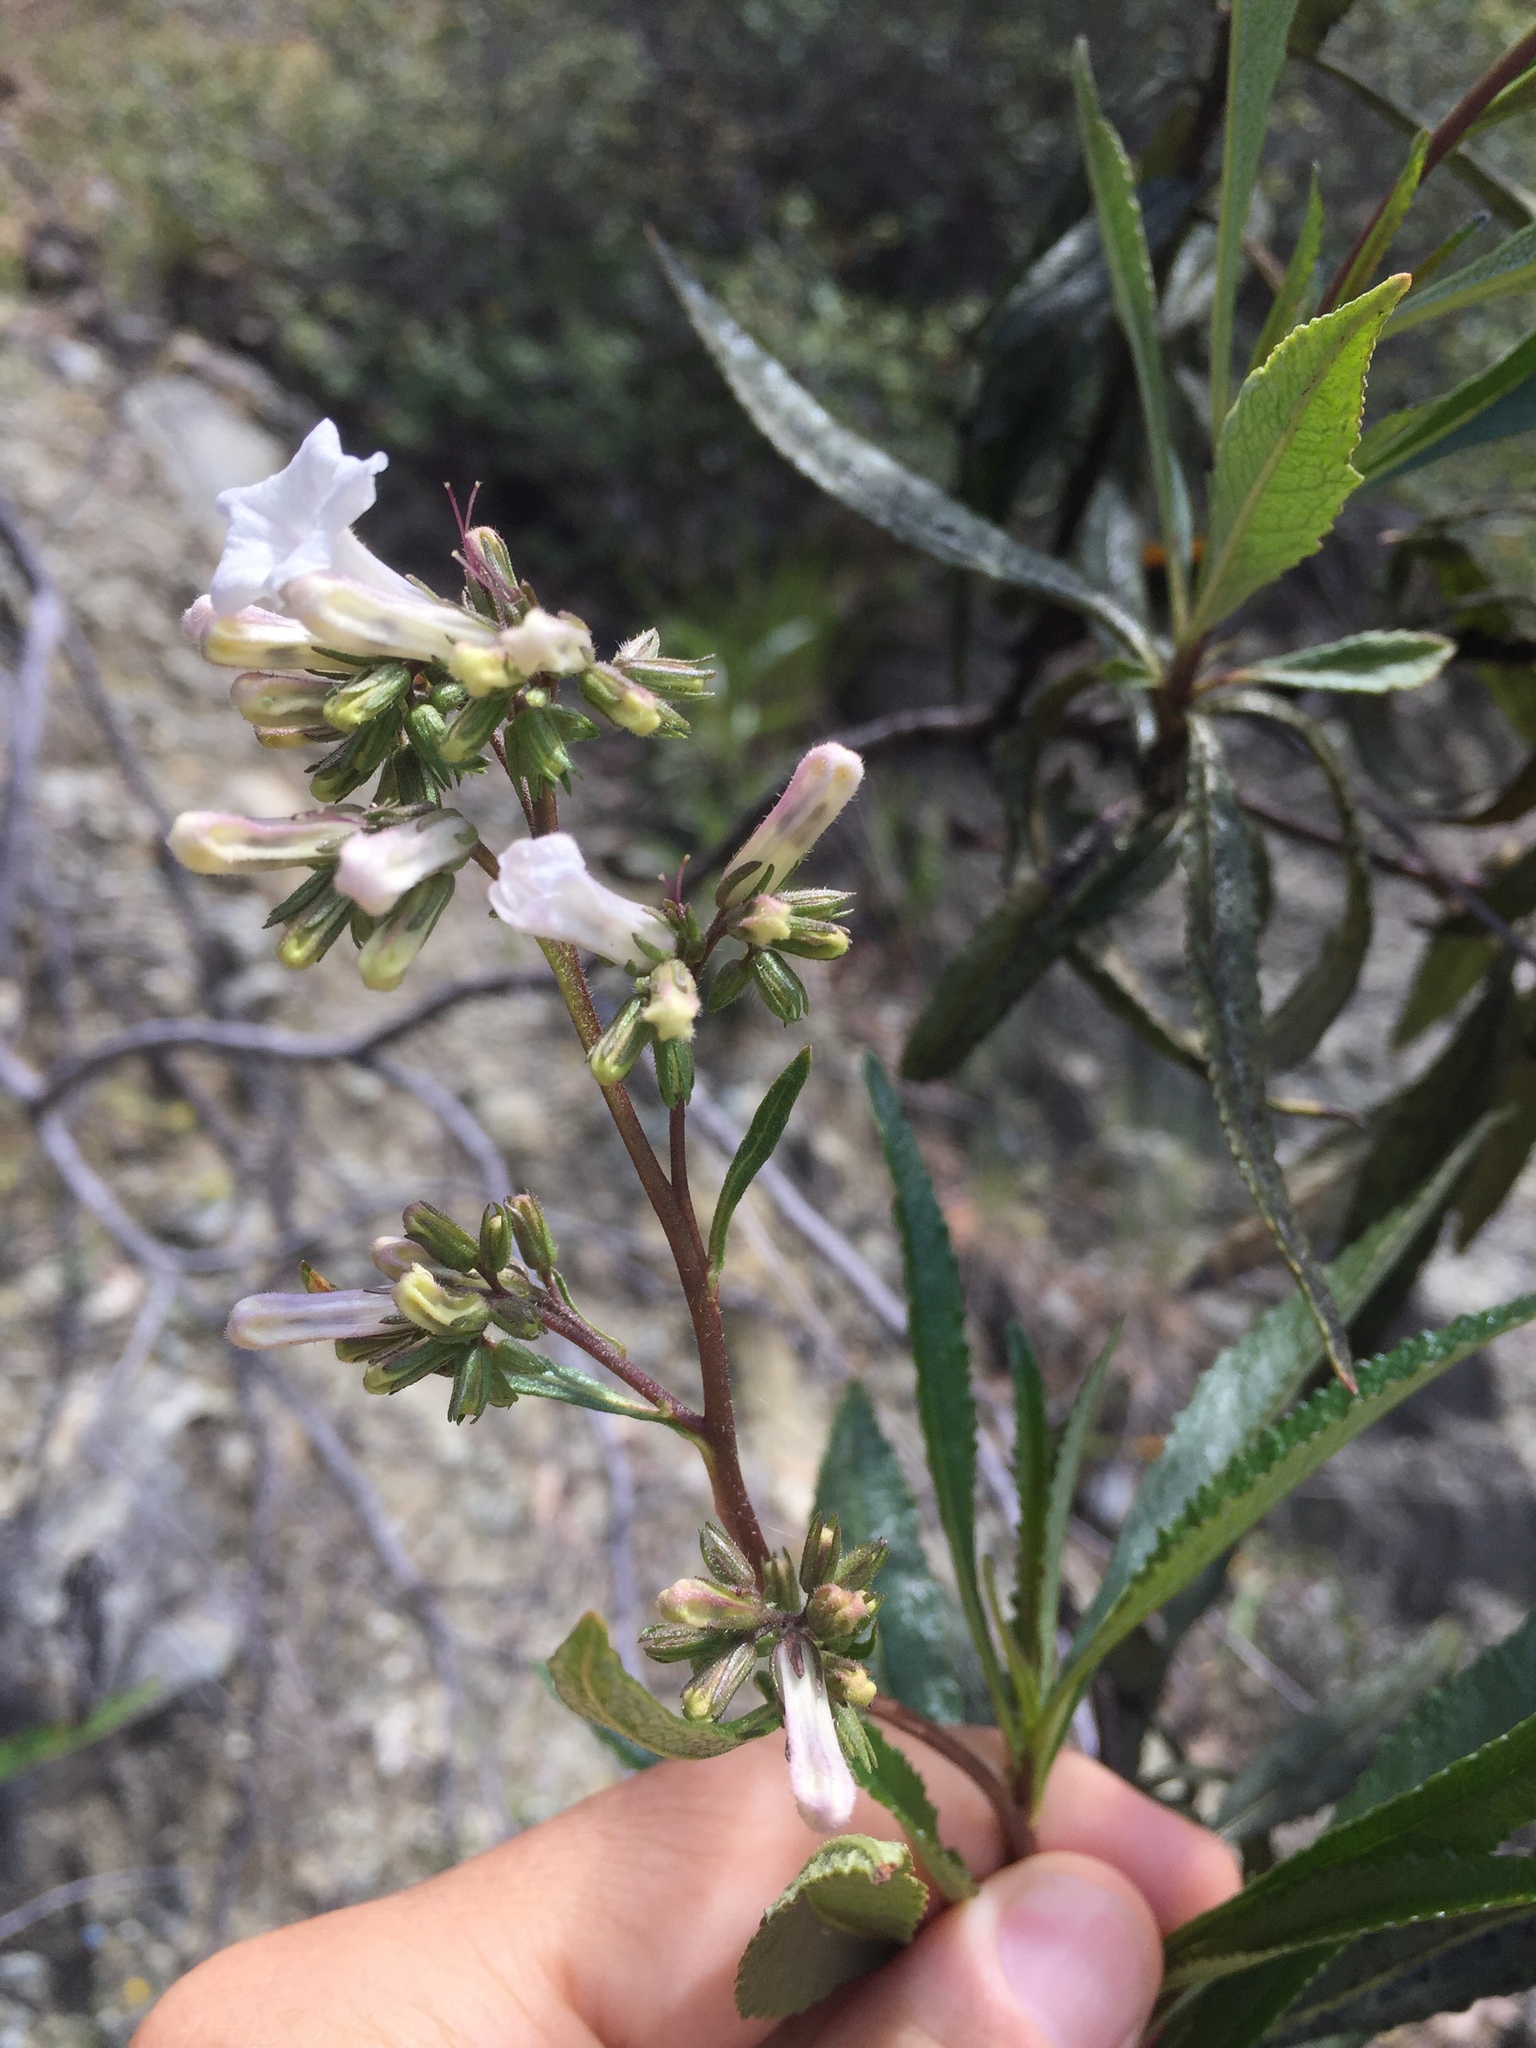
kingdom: Plantae
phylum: Tracheophyta
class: Magnoliopsida
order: Boraginales
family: Namaceae
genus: Eriodictyon
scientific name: Eriodictyon californicum
